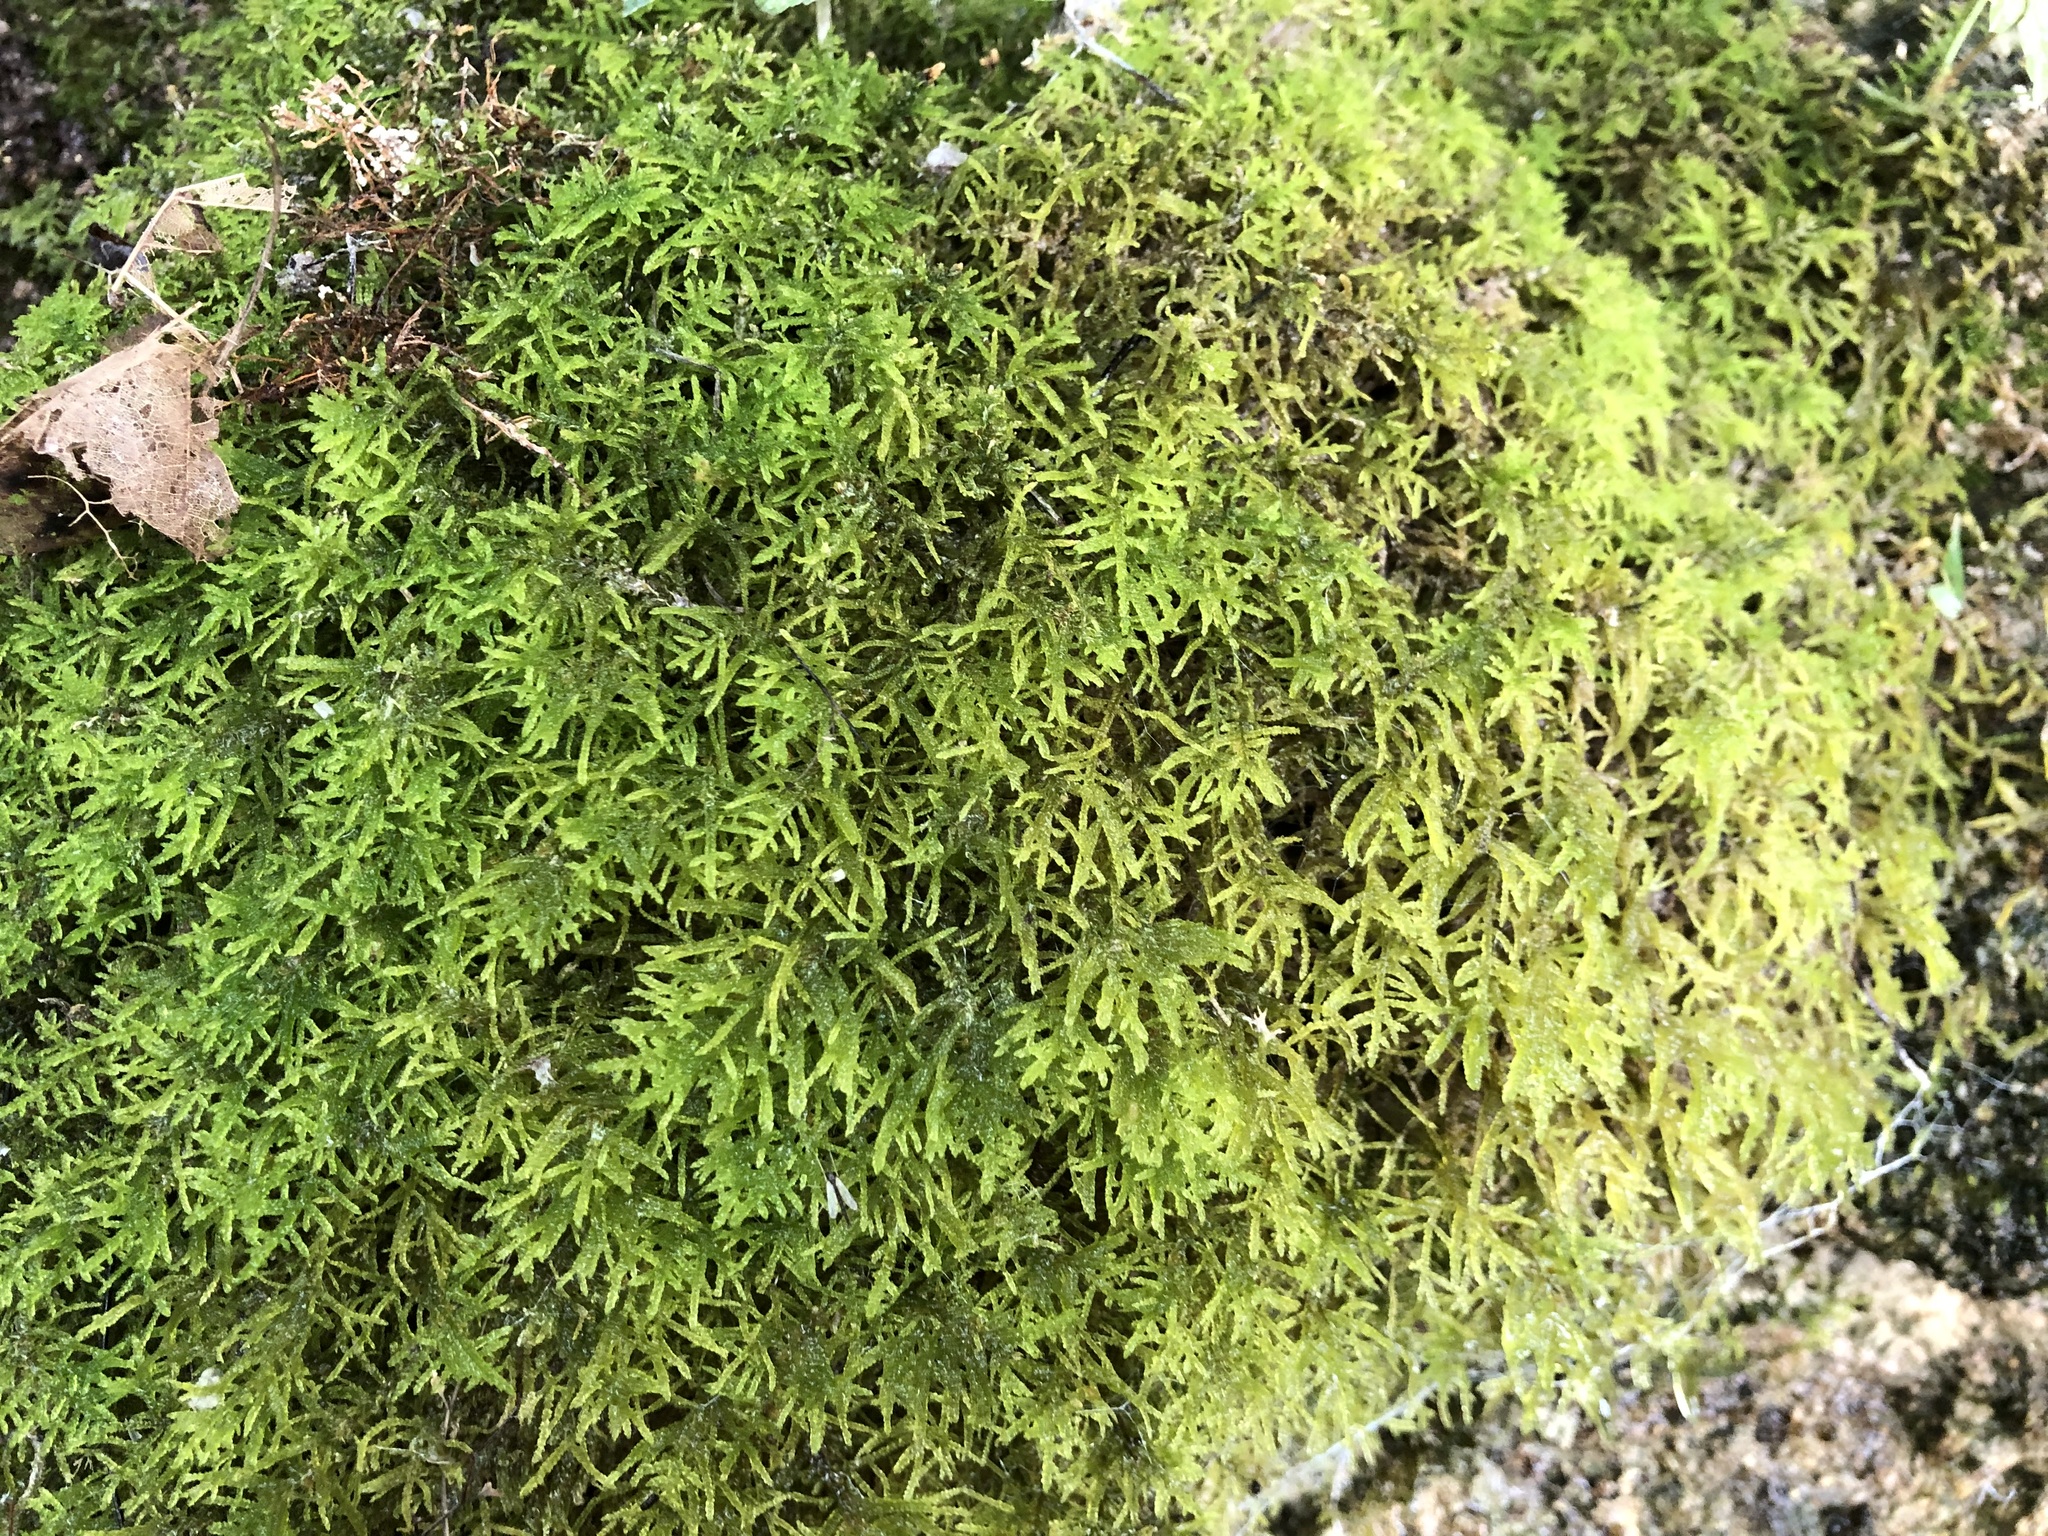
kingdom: Plantae
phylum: Bryophyta
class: Bryopsida
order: Hypnales
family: Amblystegiaceae
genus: Palustriella
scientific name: Palustriella commutata
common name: Curled hook-moss
